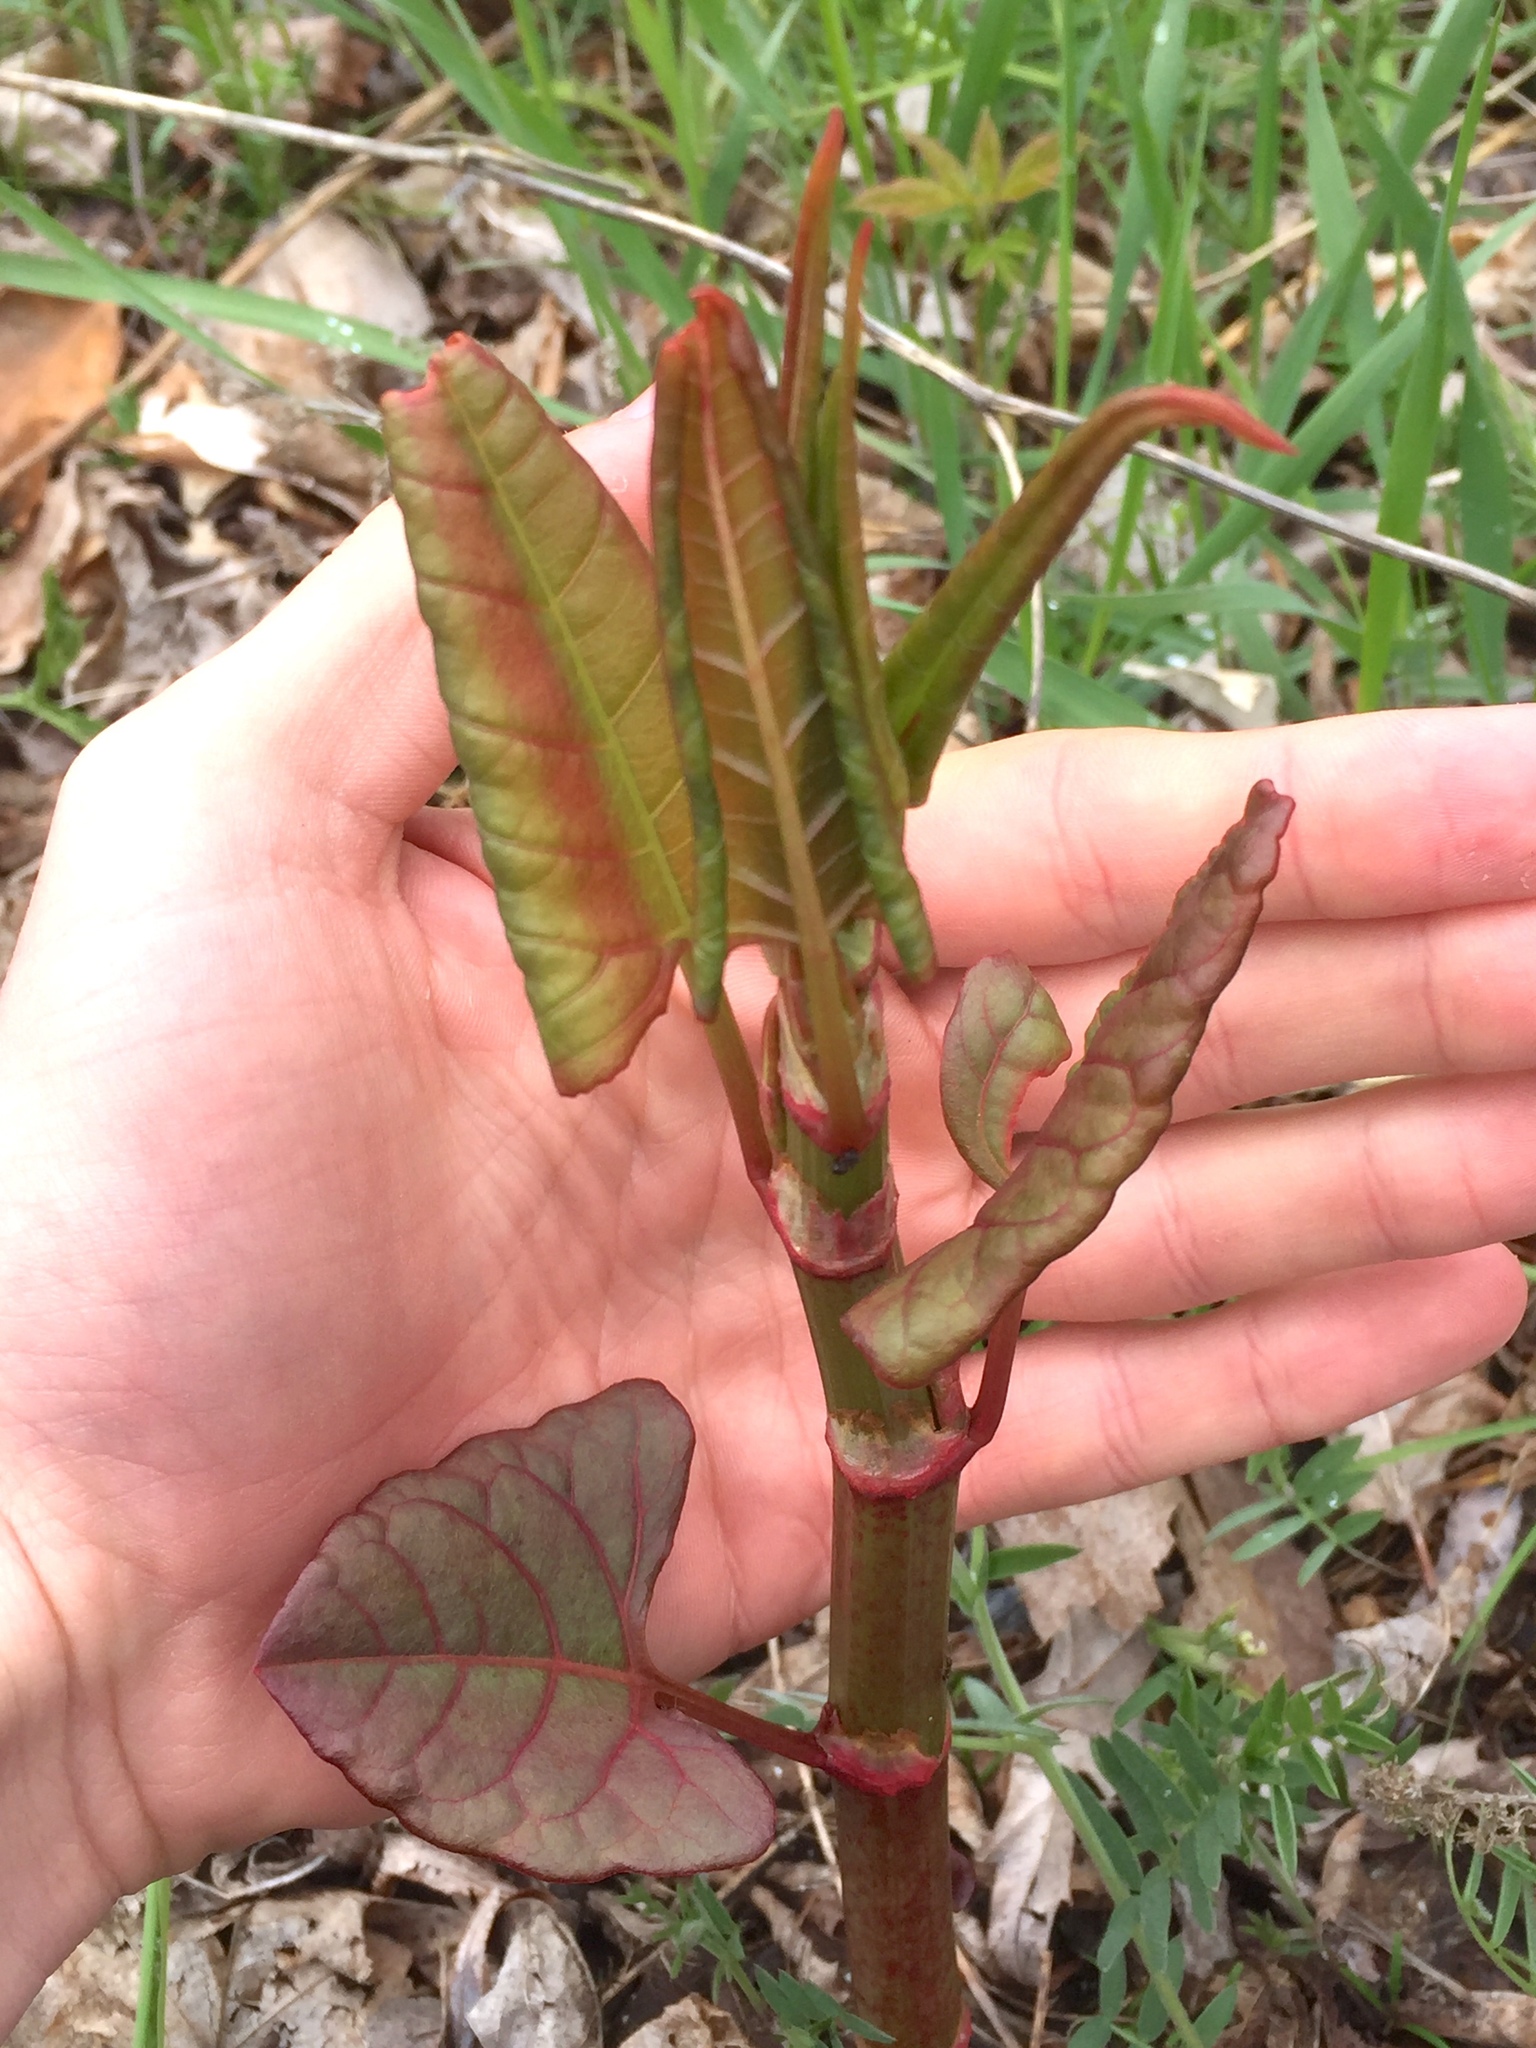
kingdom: Plantae
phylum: Tracheophyta
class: Magnoliopsida
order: Caryophyllales
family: Polygonaceae
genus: Reynoutria
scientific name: Reynoutria japonica
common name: Japanese knotweed
